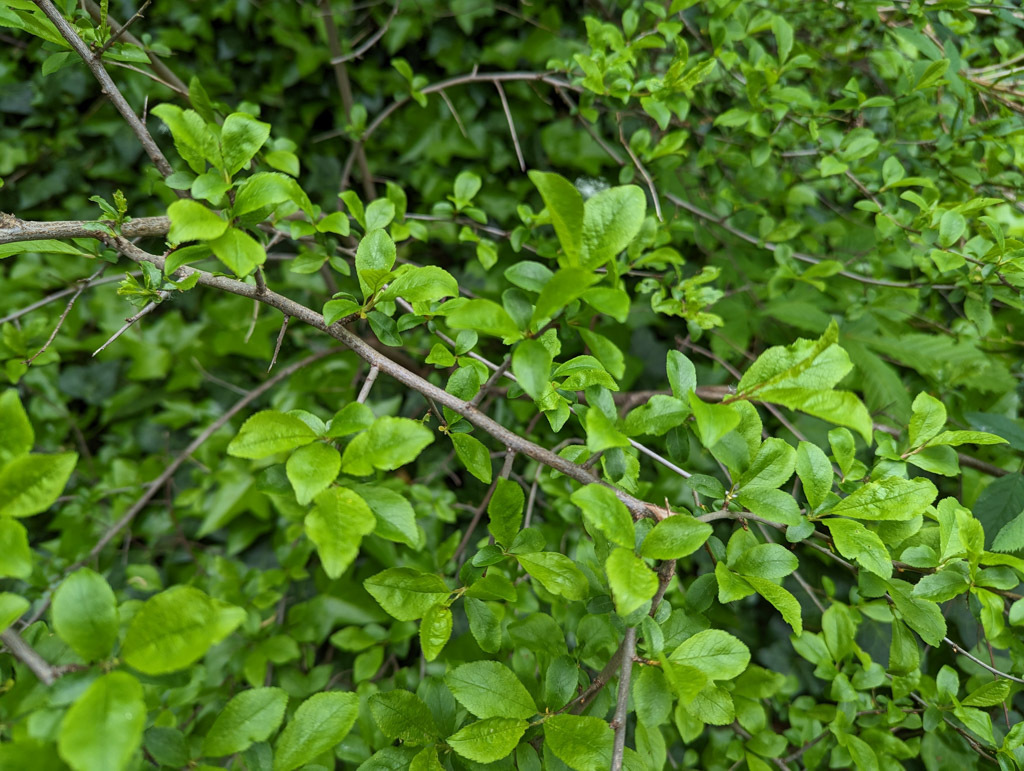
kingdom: Plantae
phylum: Tracheophyta
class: Magnoliopsida
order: Rosales
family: Rosaceae
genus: Prunus
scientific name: Prunus spinosa
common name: Blackthorn
